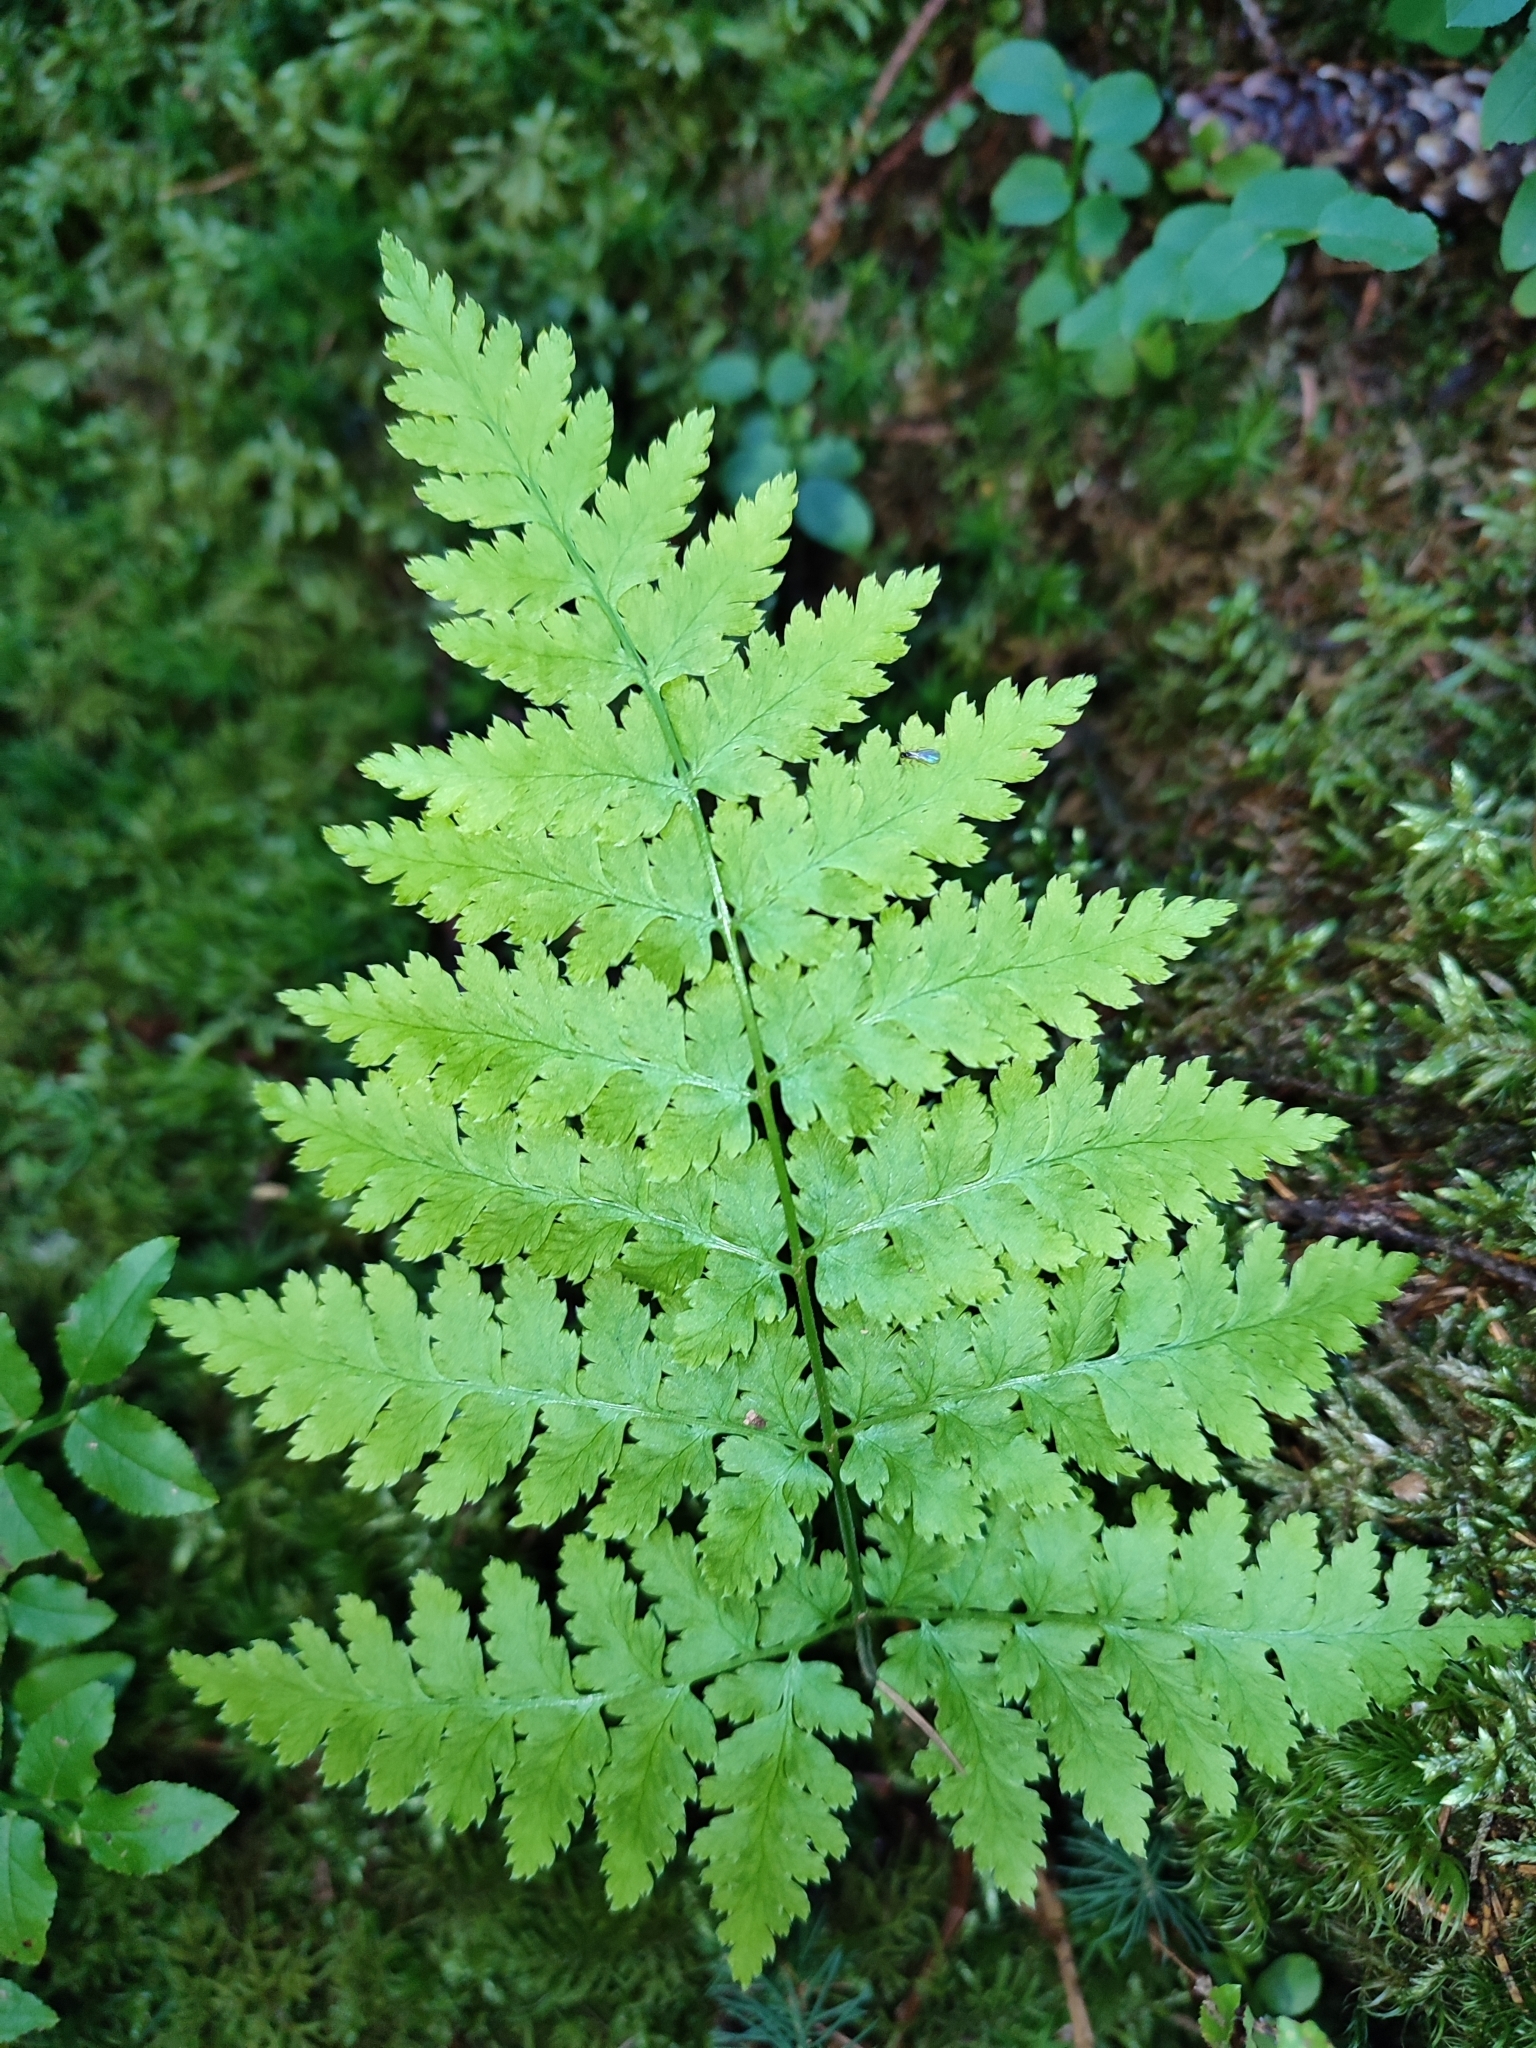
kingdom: Plantae
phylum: Tracheophyta
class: Polypodiopsida
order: Polypodiales
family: Dryopteridaceae
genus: Dryopteris
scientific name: Dryopteris carthusiana
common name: Narrow buckler-fern
